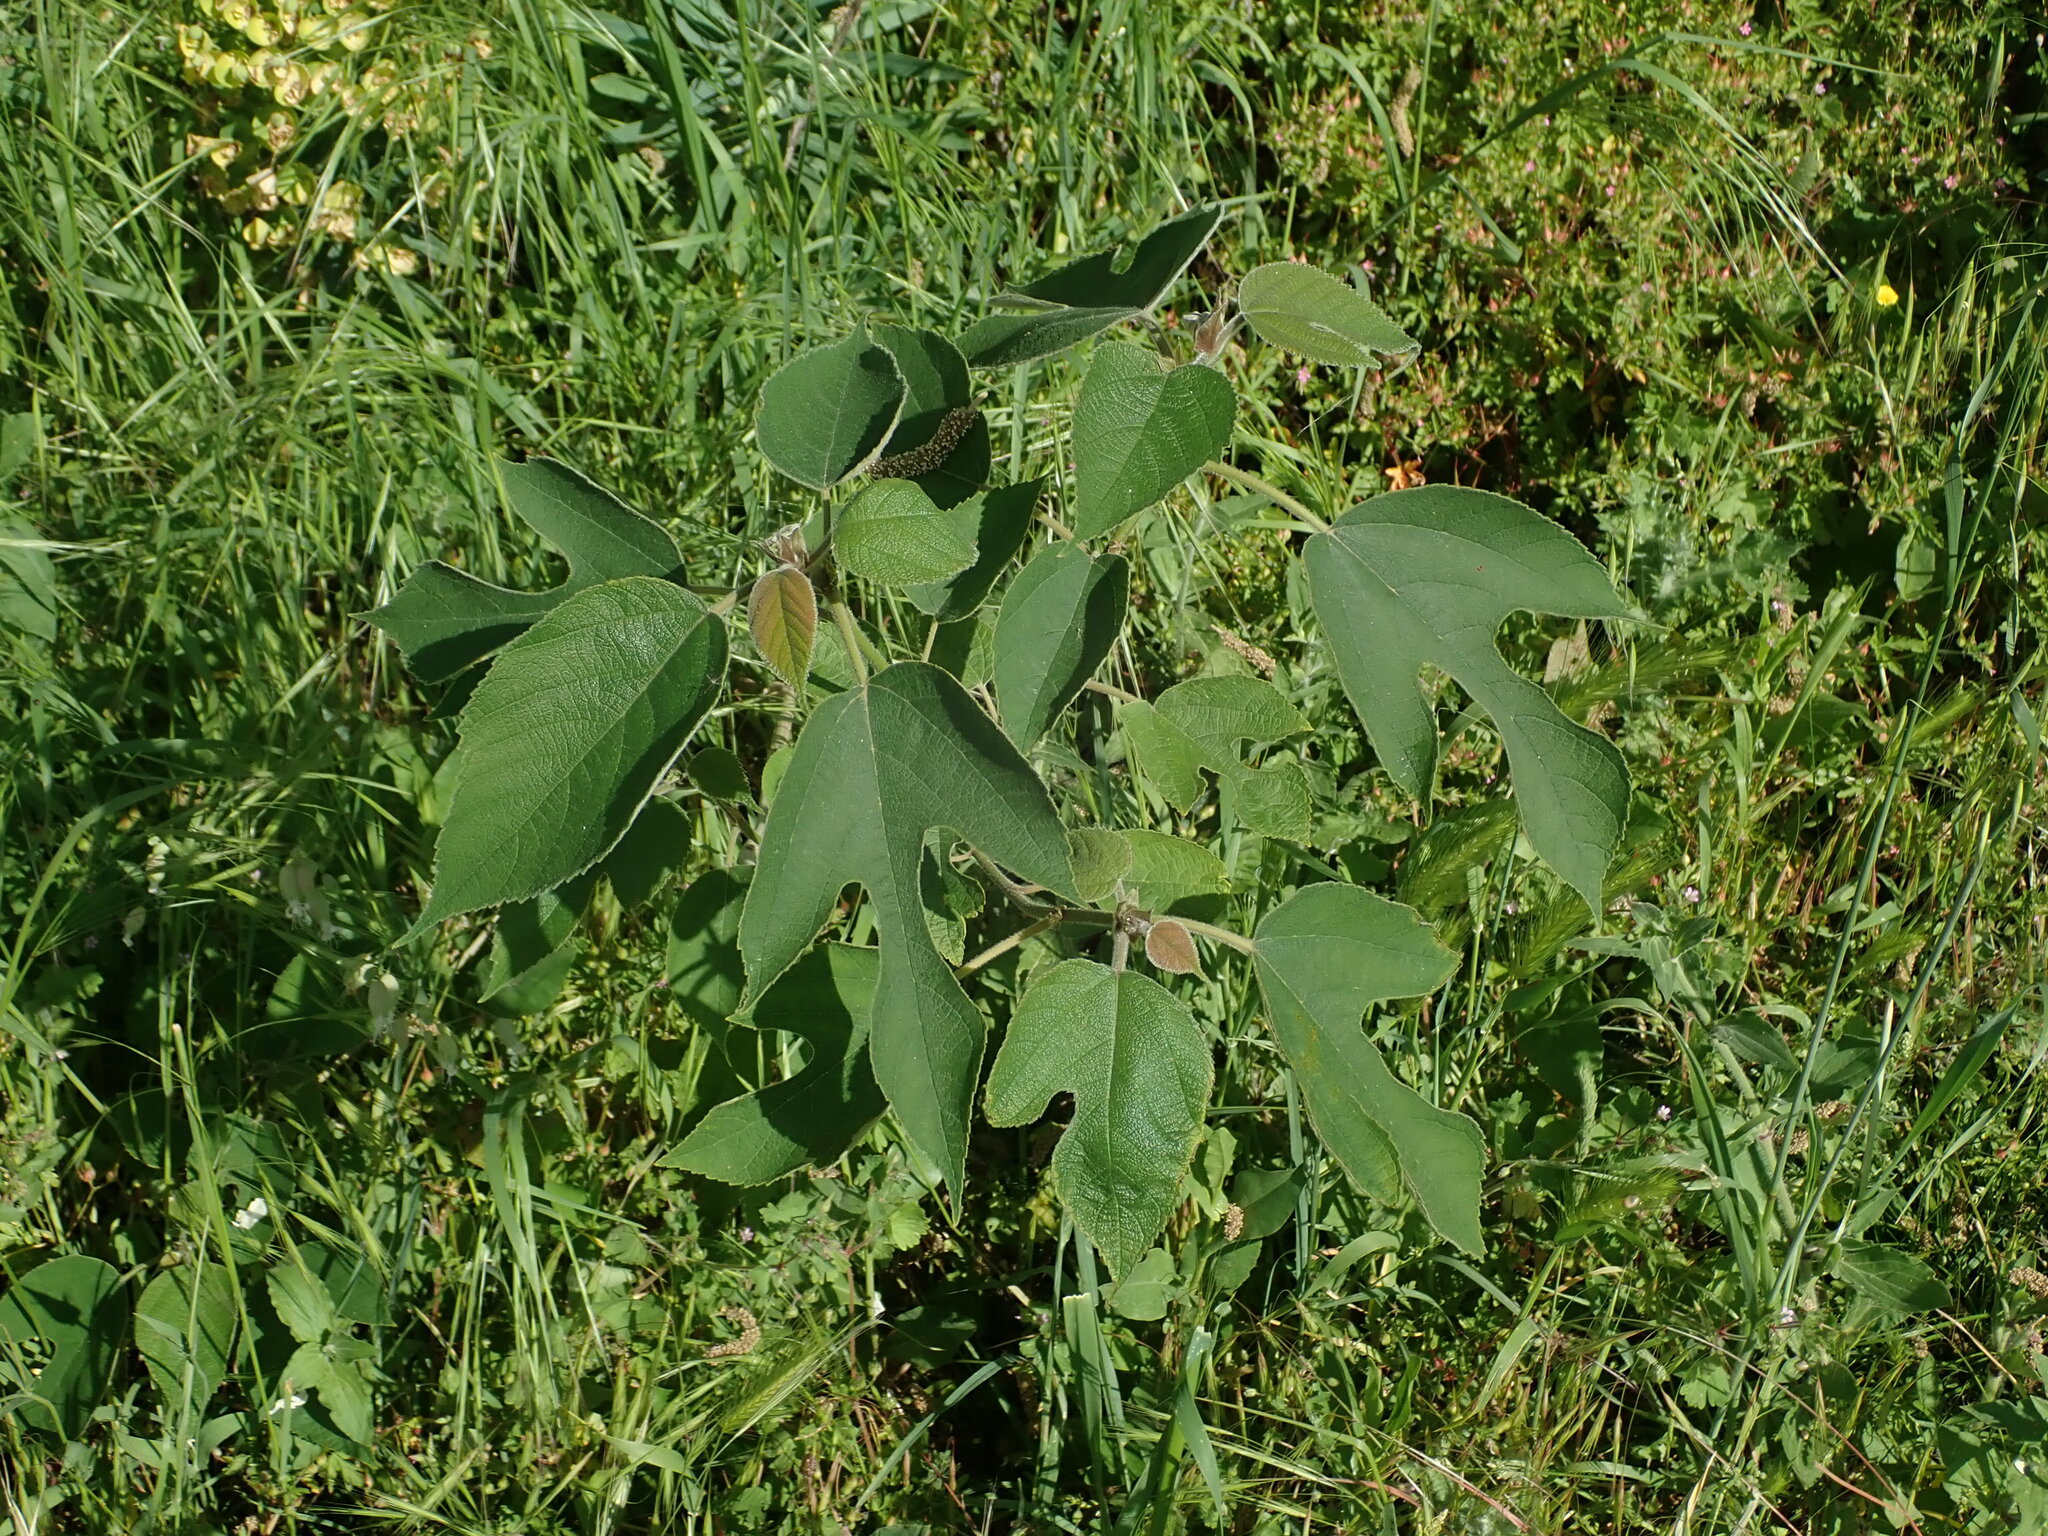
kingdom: Plantae
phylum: Tracheophyta
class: Magnoliopsida
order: Rosales
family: Moraceae
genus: Broussonetia
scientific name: Broussonetia papyrifera
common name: Paper mulberry
